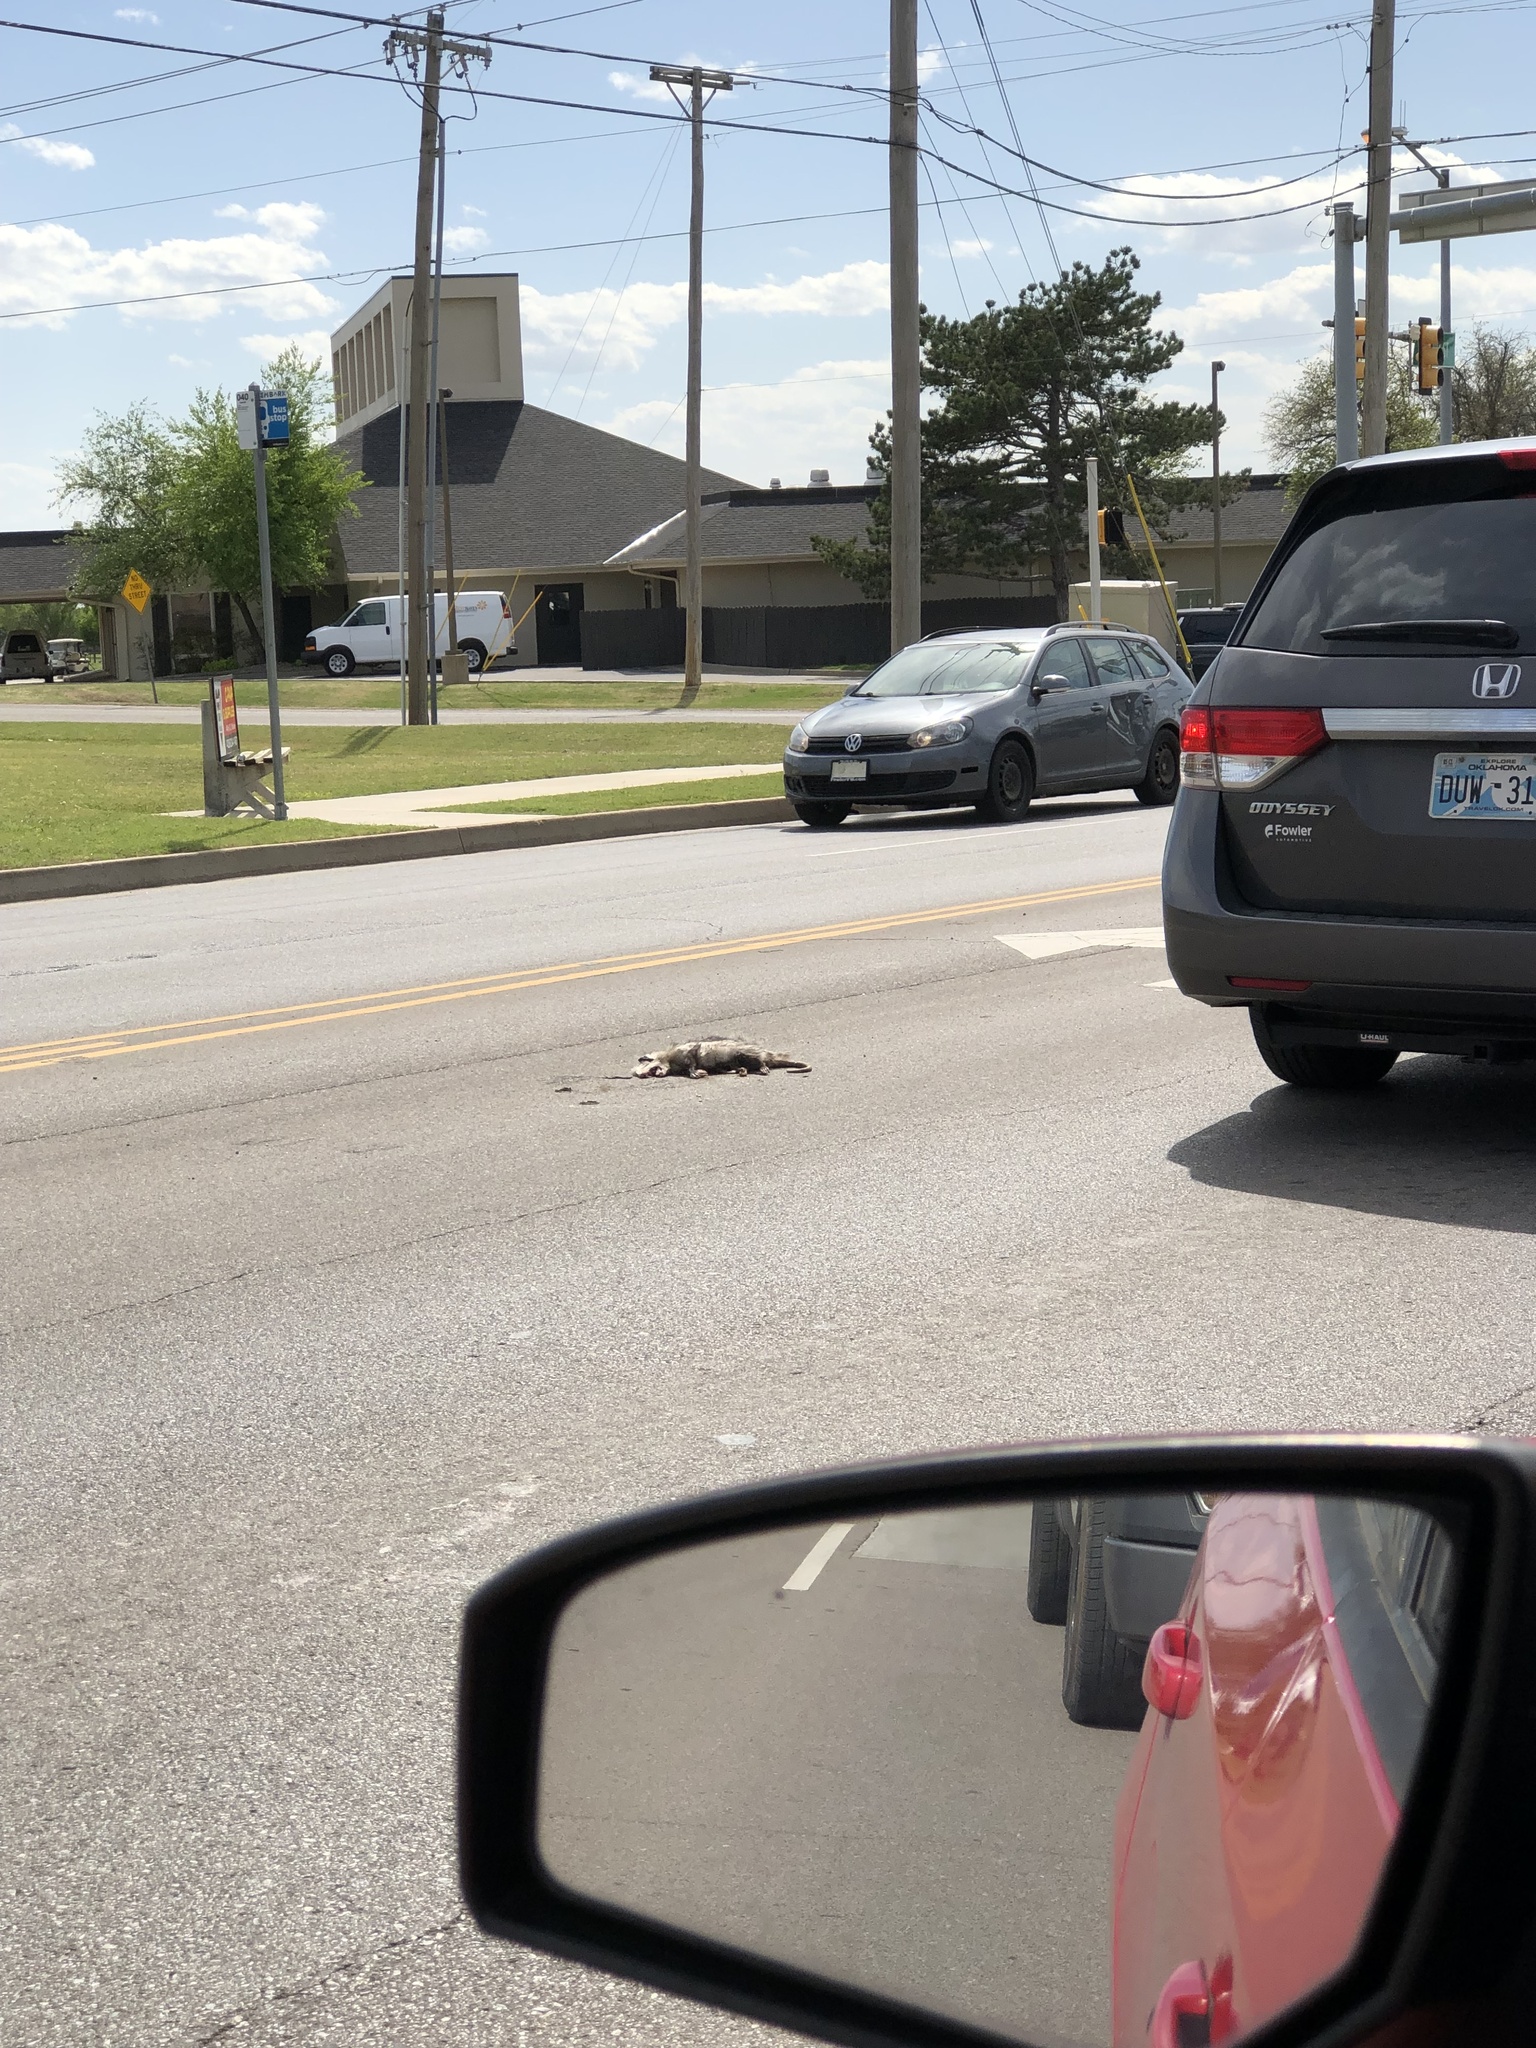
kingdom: Animalia
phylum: Chordata
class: Mammalia
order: Didelphimorphia
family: Didelphidae
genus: Didelphis
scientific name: Didelphis virginiana
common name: Virginia opossum
